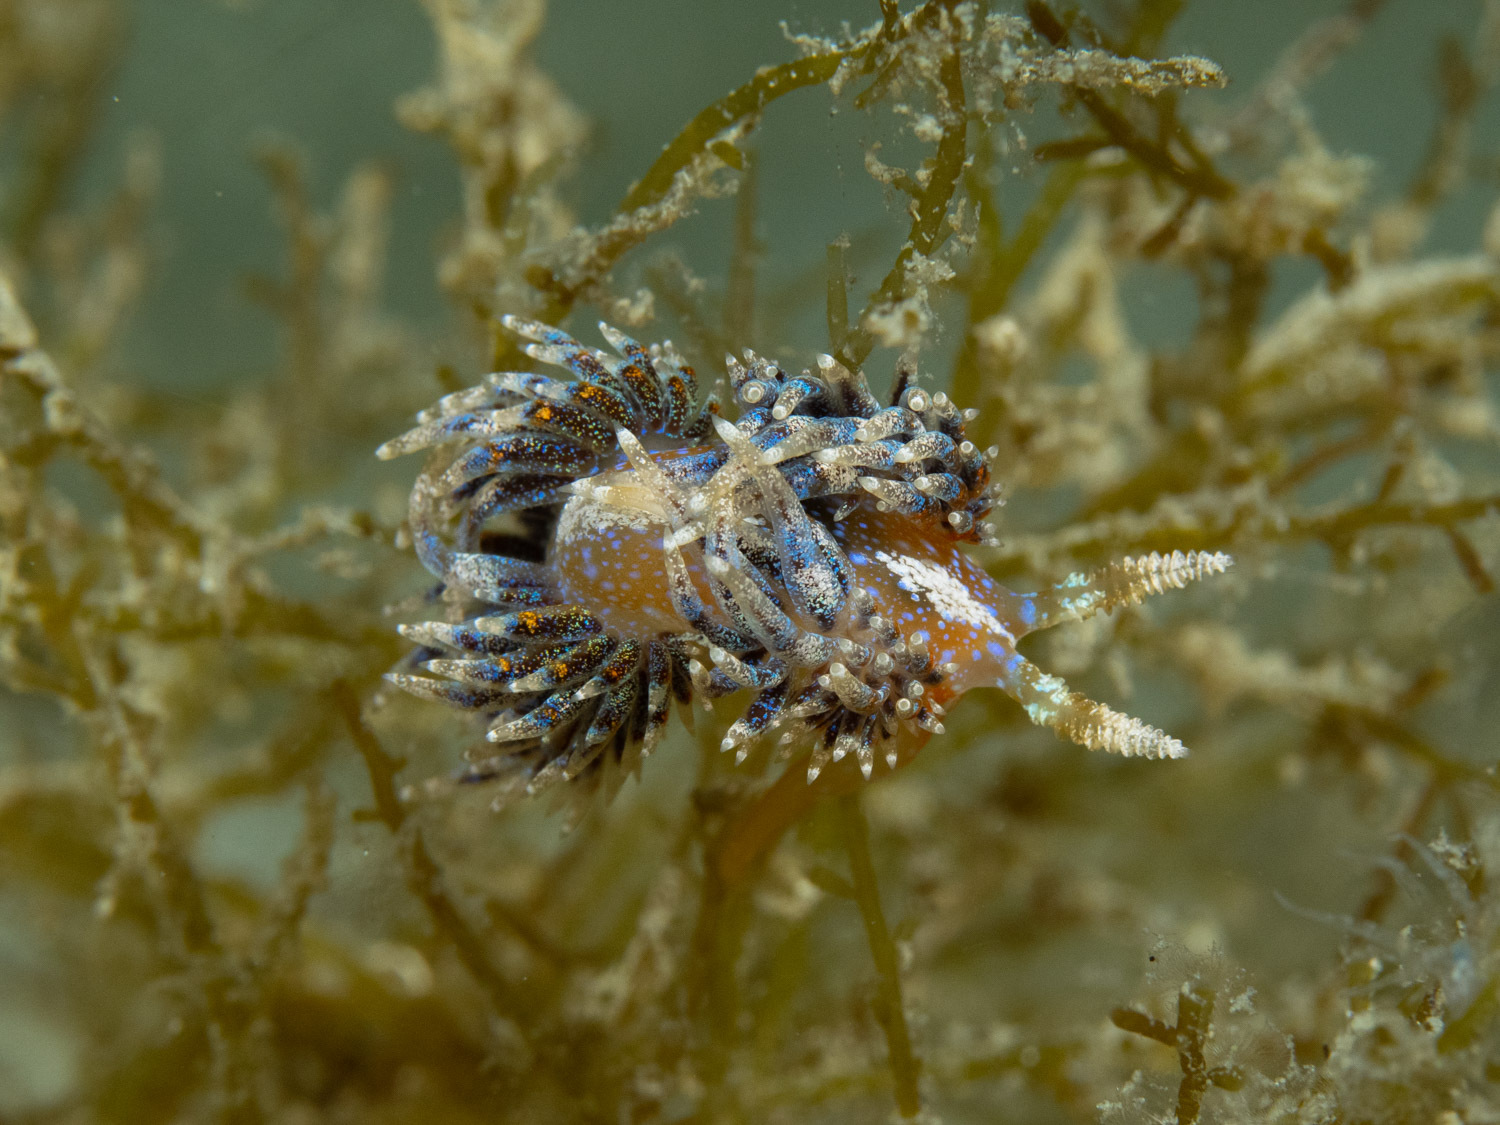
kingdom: Animalia
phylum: Mollusca
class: Gastropoda
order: Nudibranchia
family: Facelinidae
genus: Austraeolis
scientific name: Austraeolis ornata
